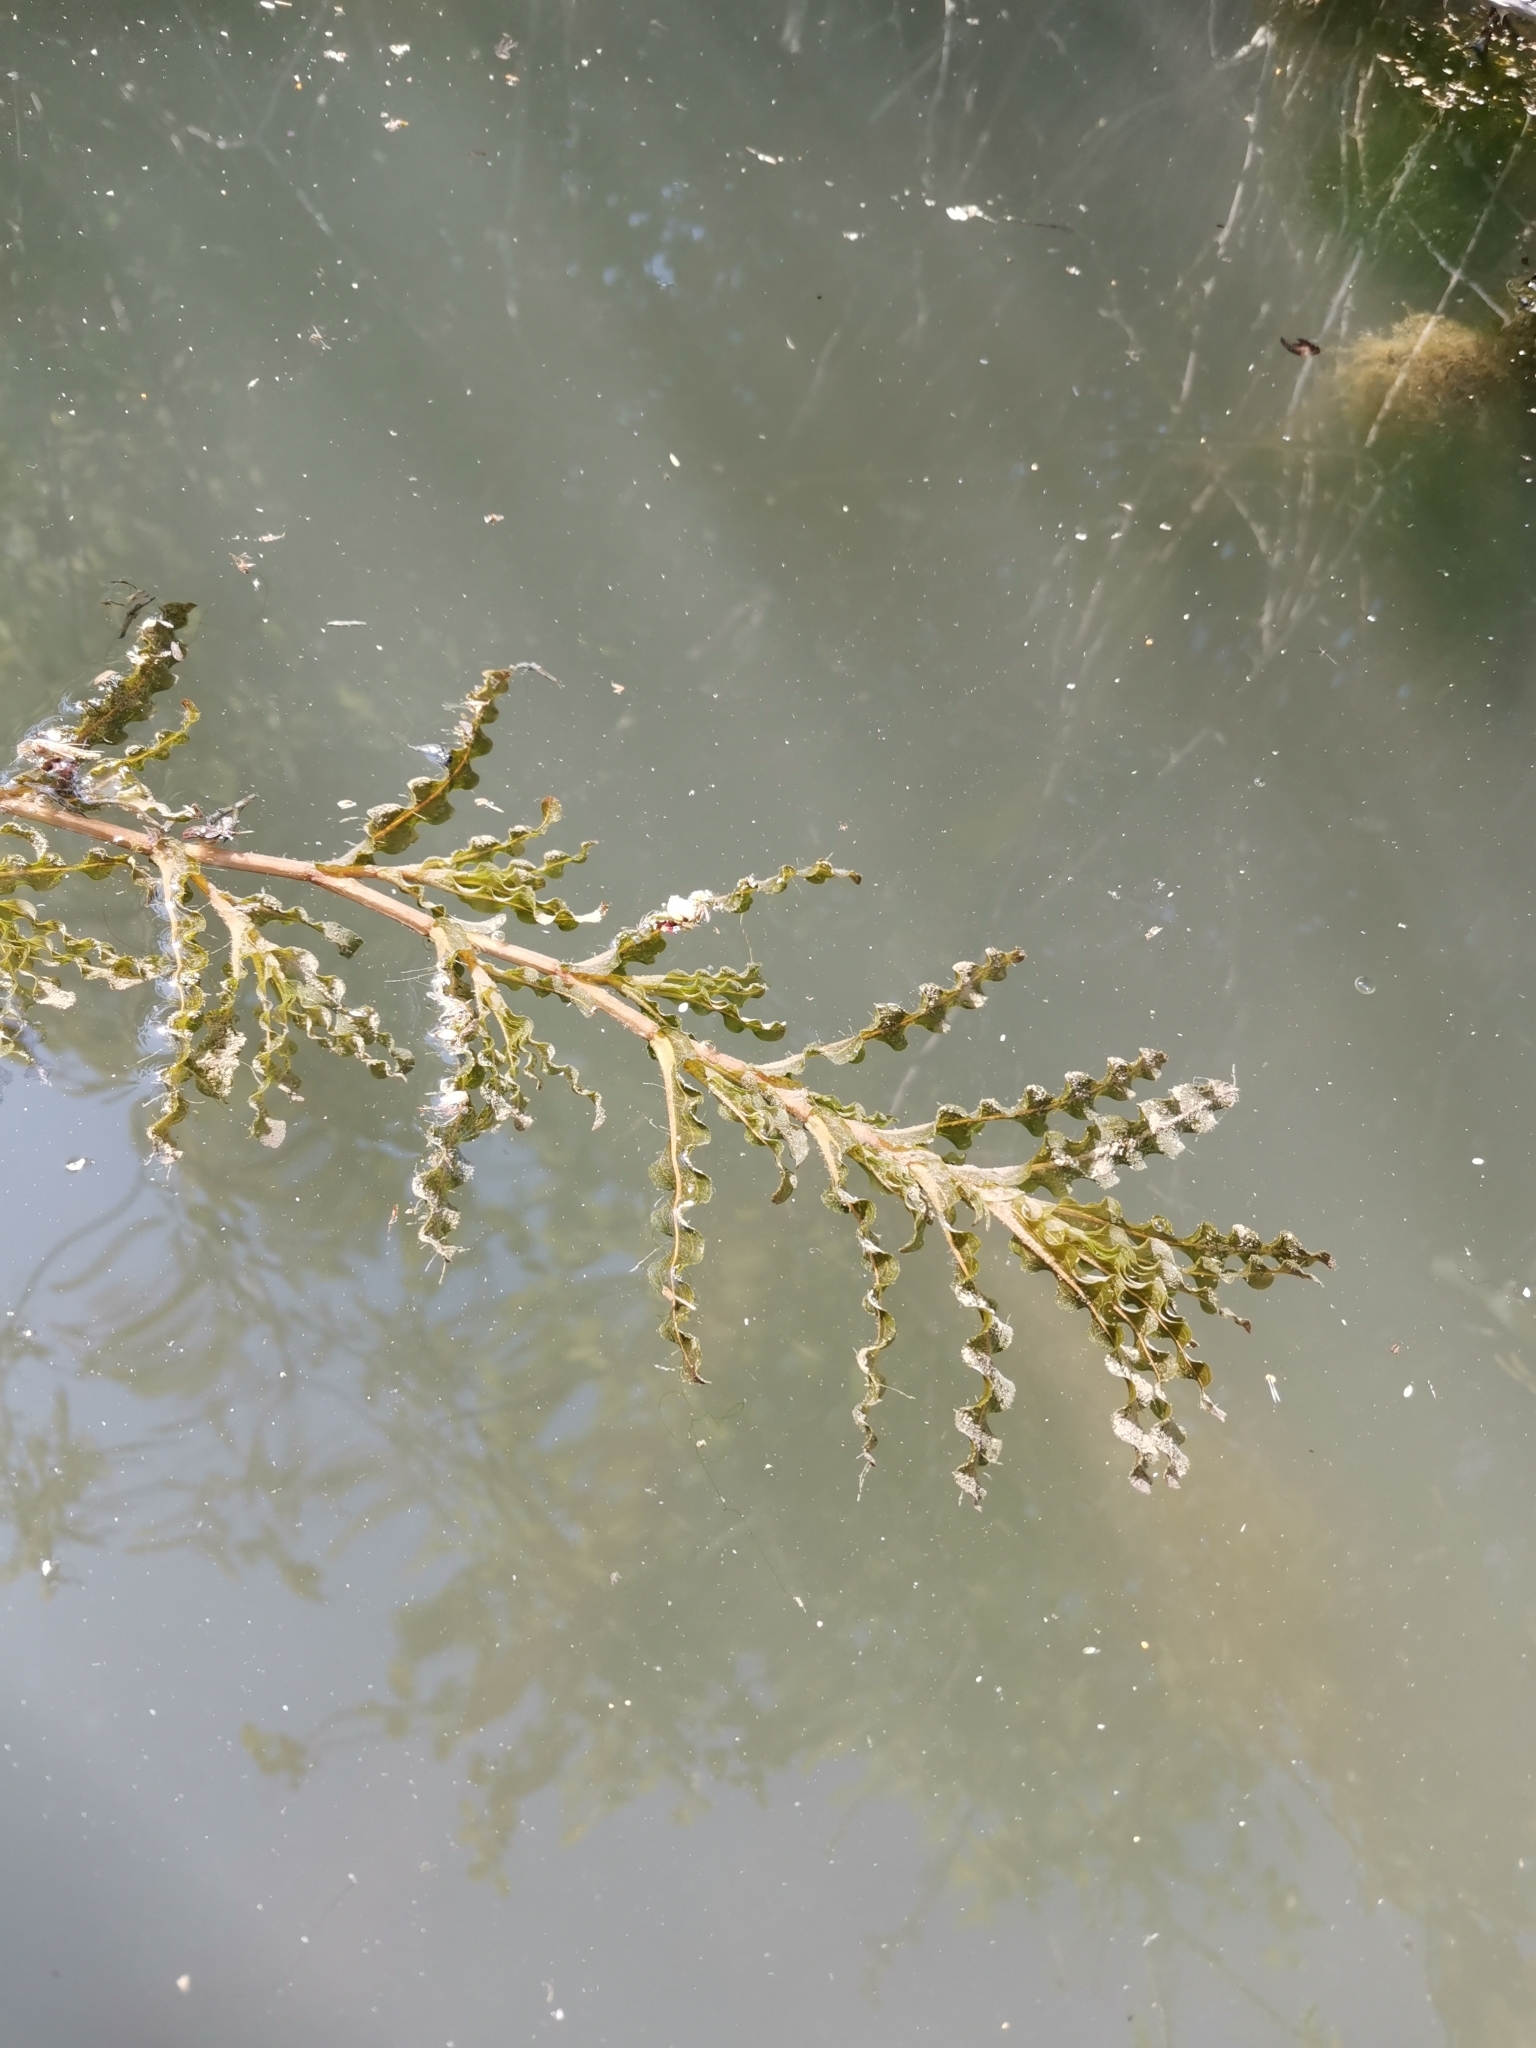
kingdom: Plantae
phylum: Tracheophyta
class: Liliopsida
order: Alismatales
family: Potamogetonaceae
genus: Potamogeton
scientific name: Potamogeton crispus
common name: Curled pondweed
